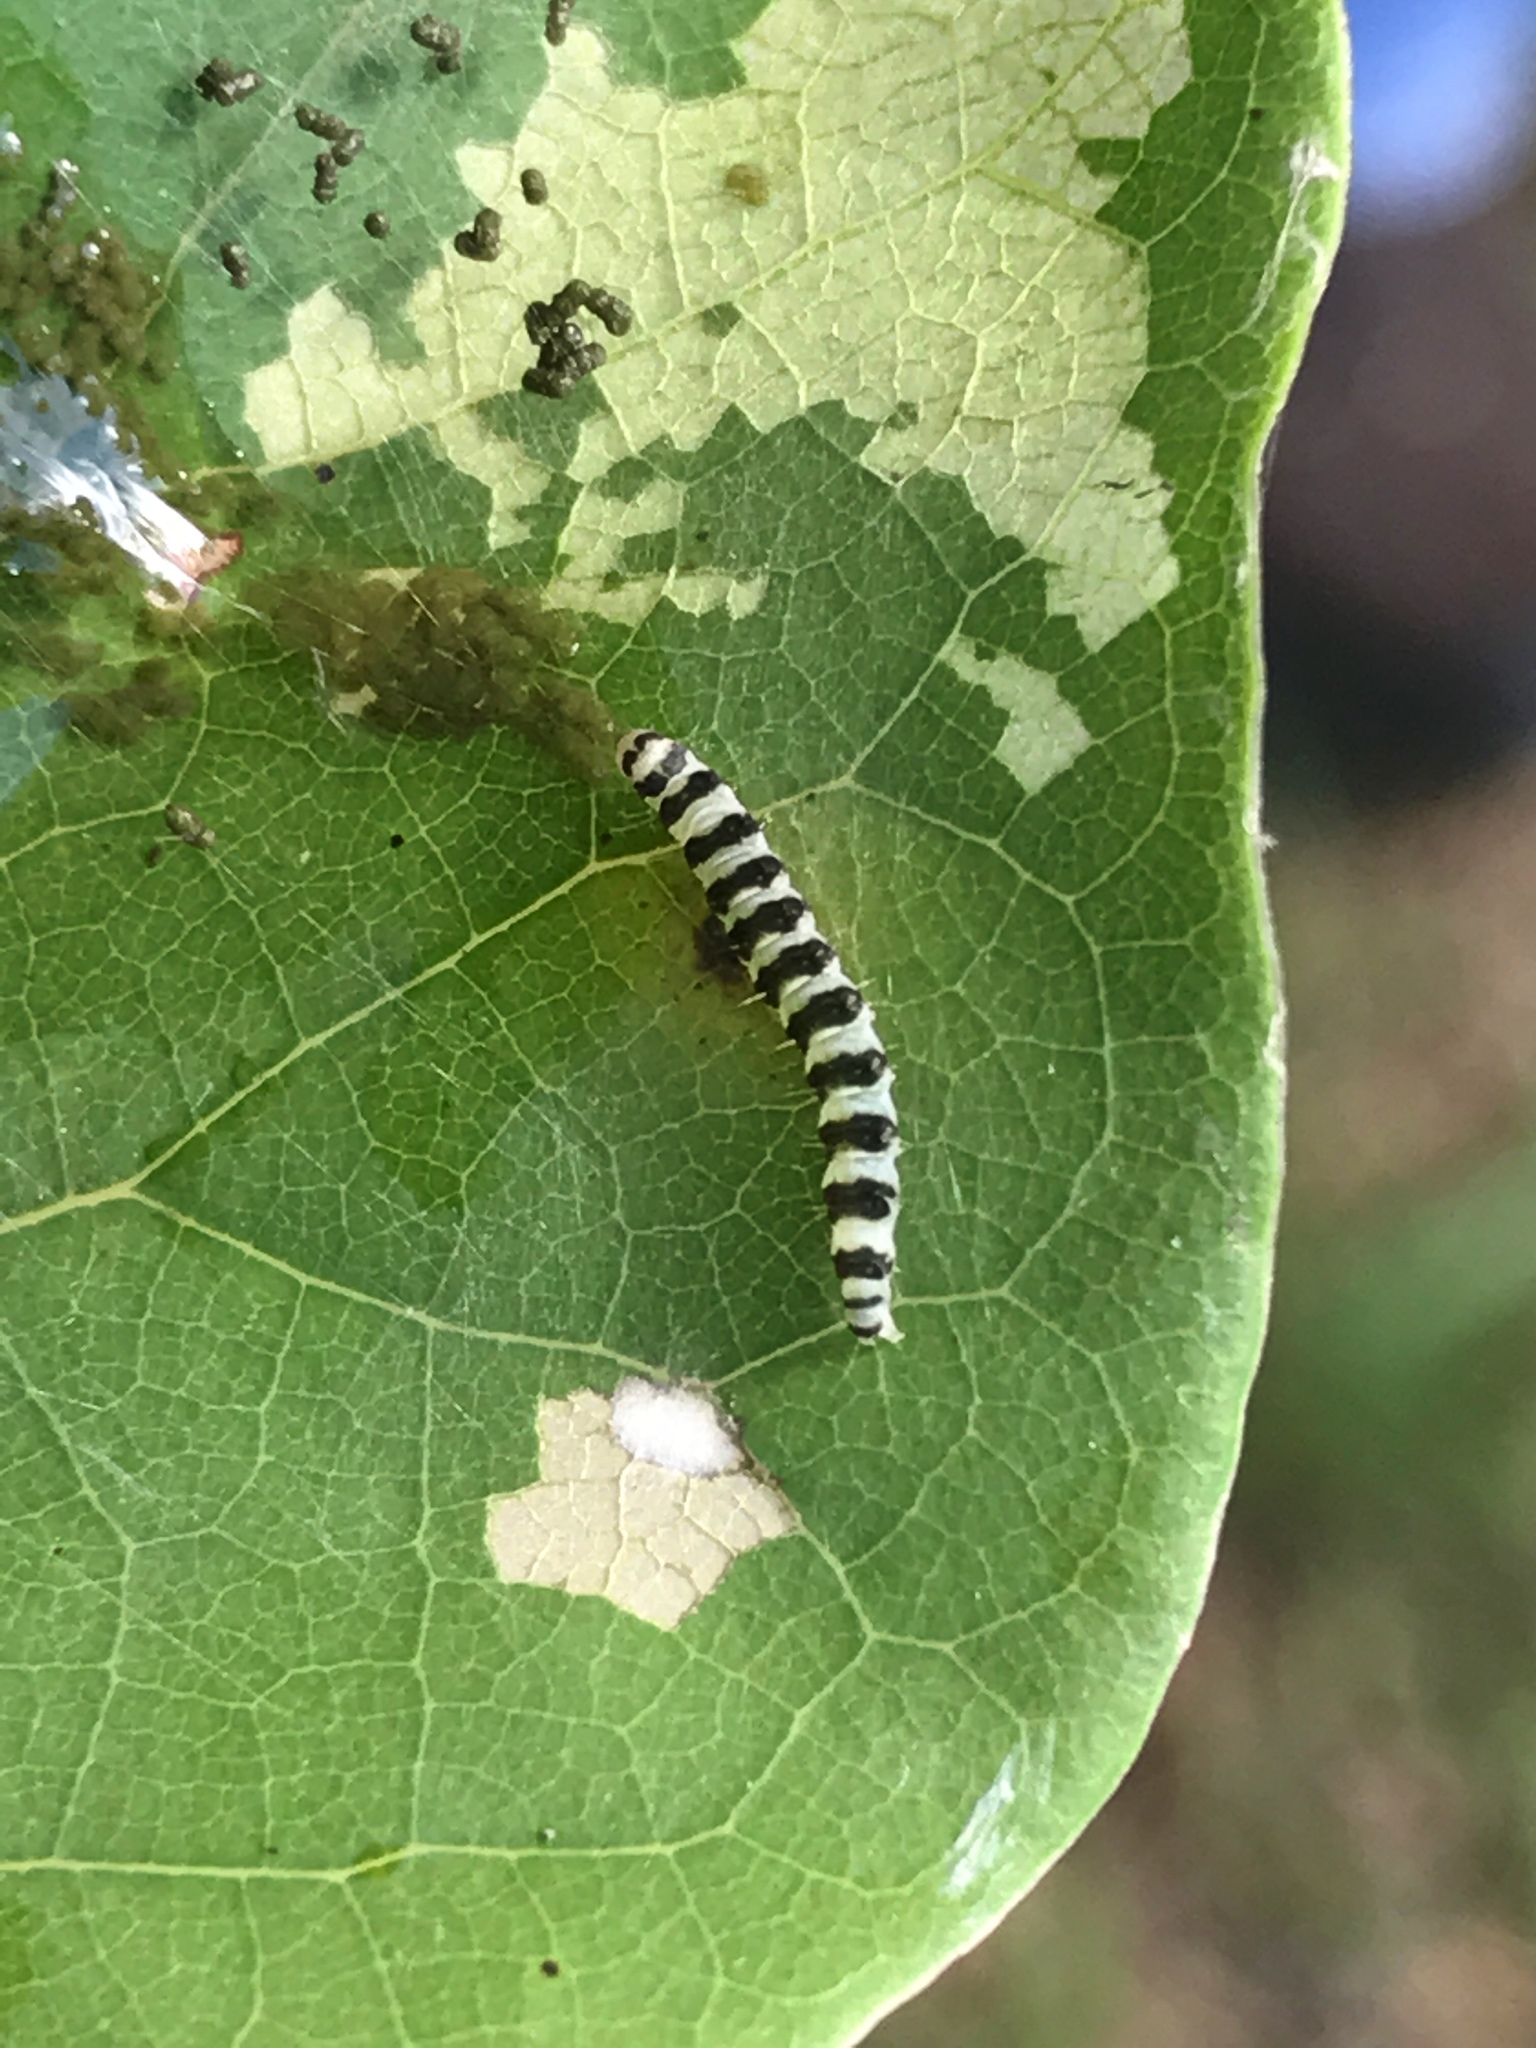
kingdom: Animalia
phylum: Arthropoda
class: Insecta
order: Lepidoptera
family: Gelechiidae
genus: Fascista
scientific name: Fascista cercerisella
